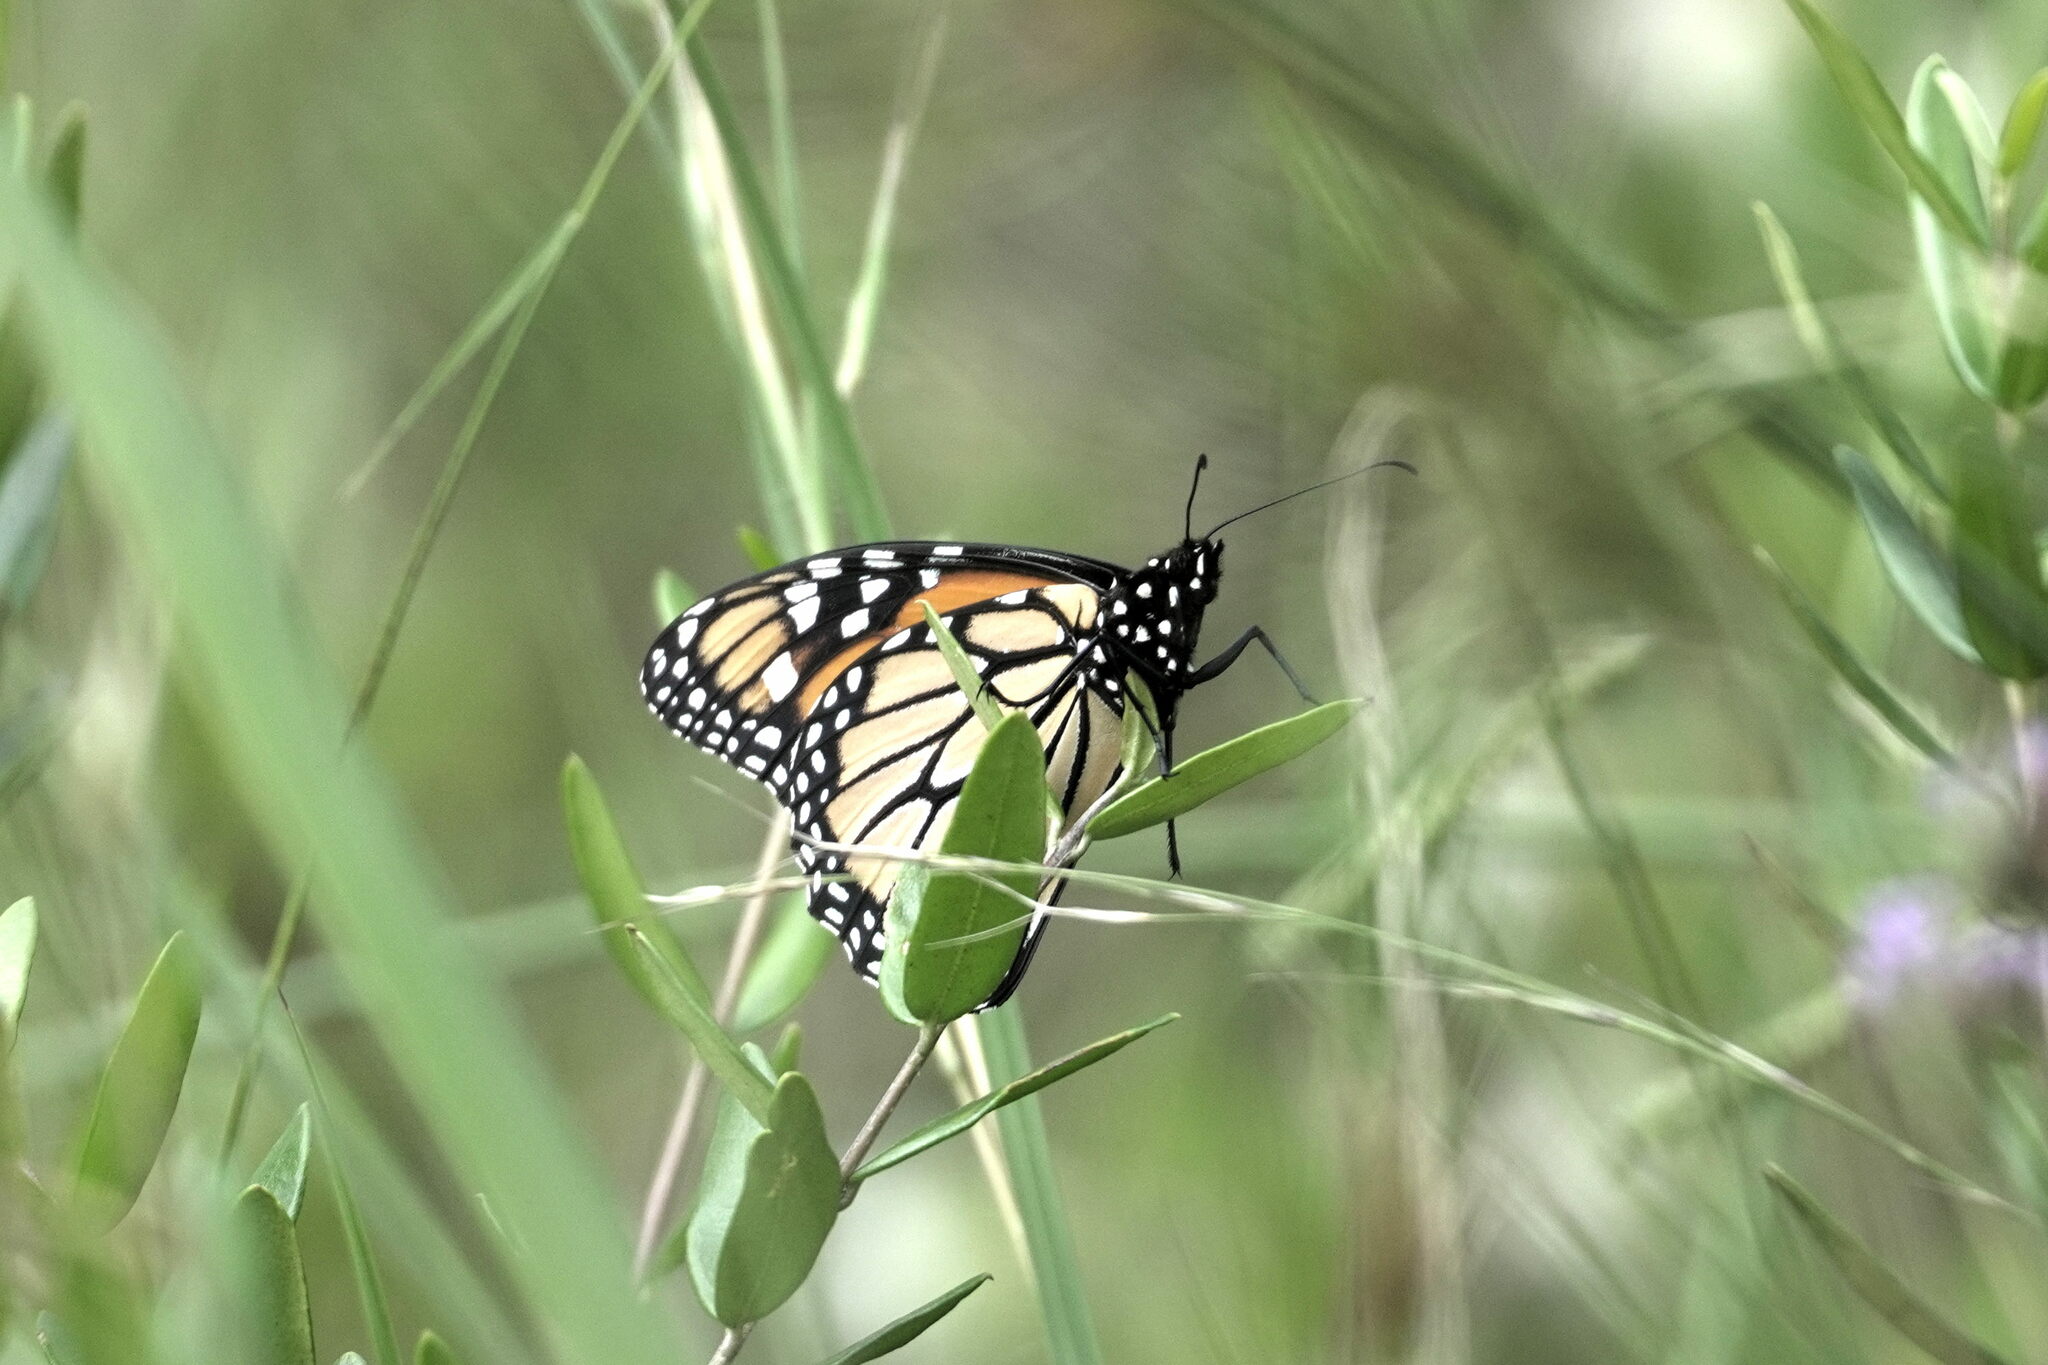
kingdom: Animalia
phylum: Arthropoda
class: Insecta
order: Lepidoptera
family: Nymphalidae
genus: Danaus
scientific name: Danaus plexippus
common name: Monarch
